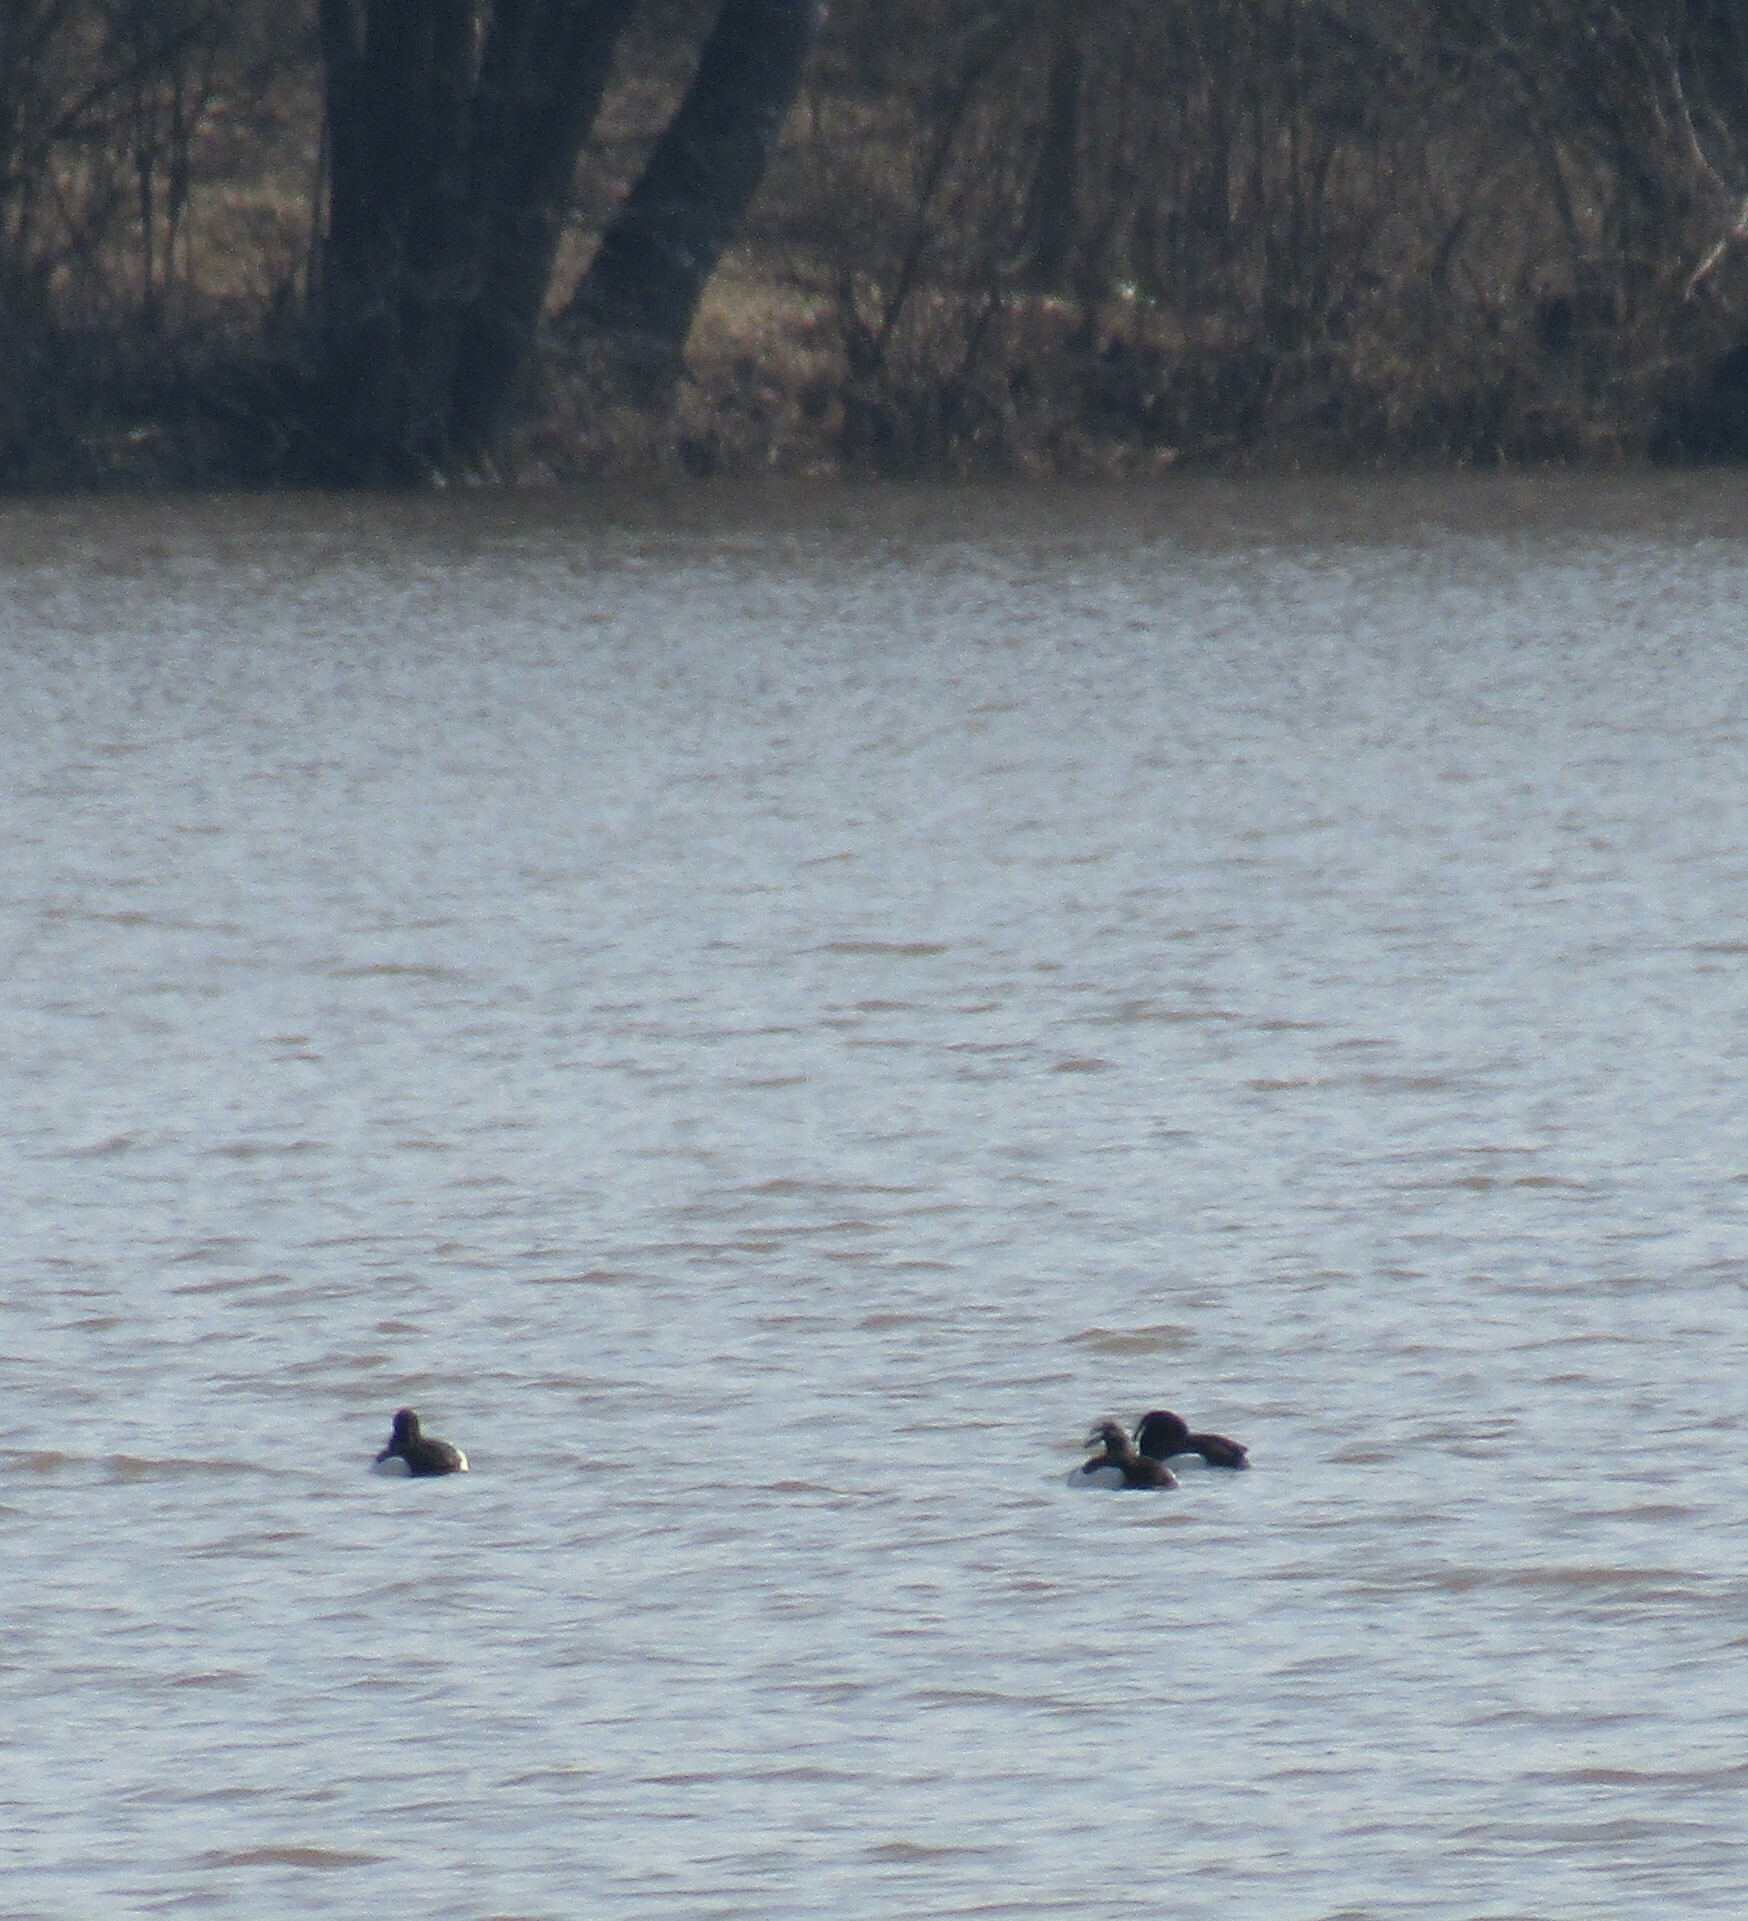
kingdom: Animalia
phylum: Chordata
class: Aves
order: Anseriformes
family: Anatidae
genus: Aythya
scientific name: Aythya fuligula
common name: Tufted duck
